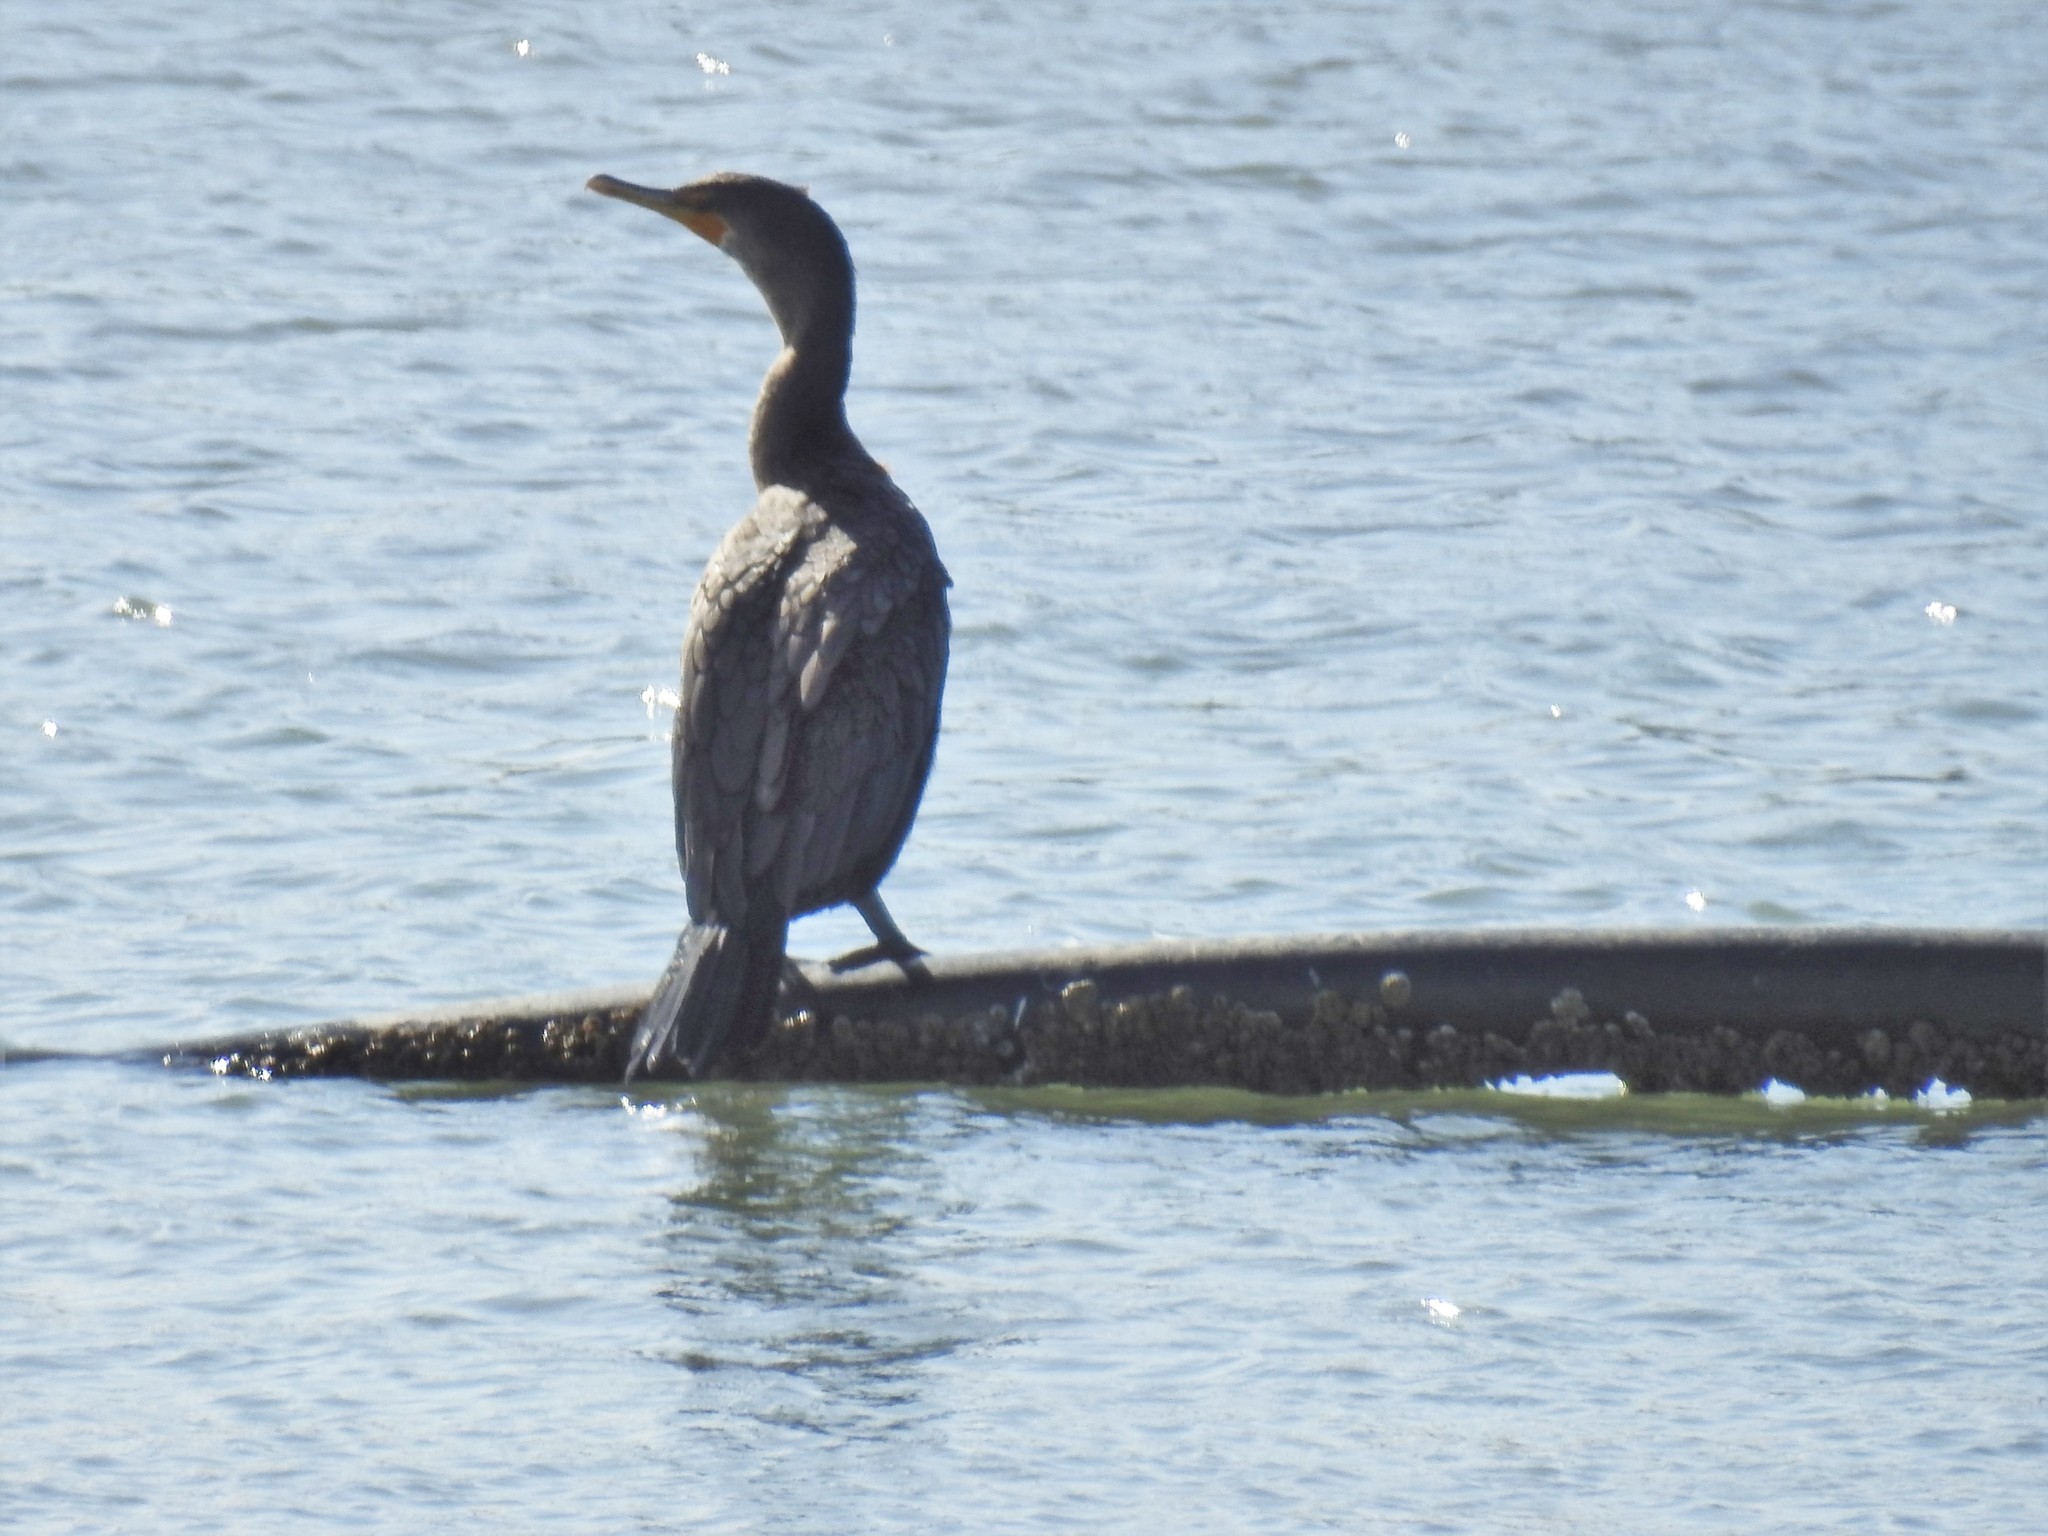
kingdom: Animalia
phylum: Chordata
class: Aves
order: Suliformes
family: Phalacrocoracidae
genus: Phalacrocorax
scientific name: Phalacrocorax auritus
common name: Double-crested cormorant
